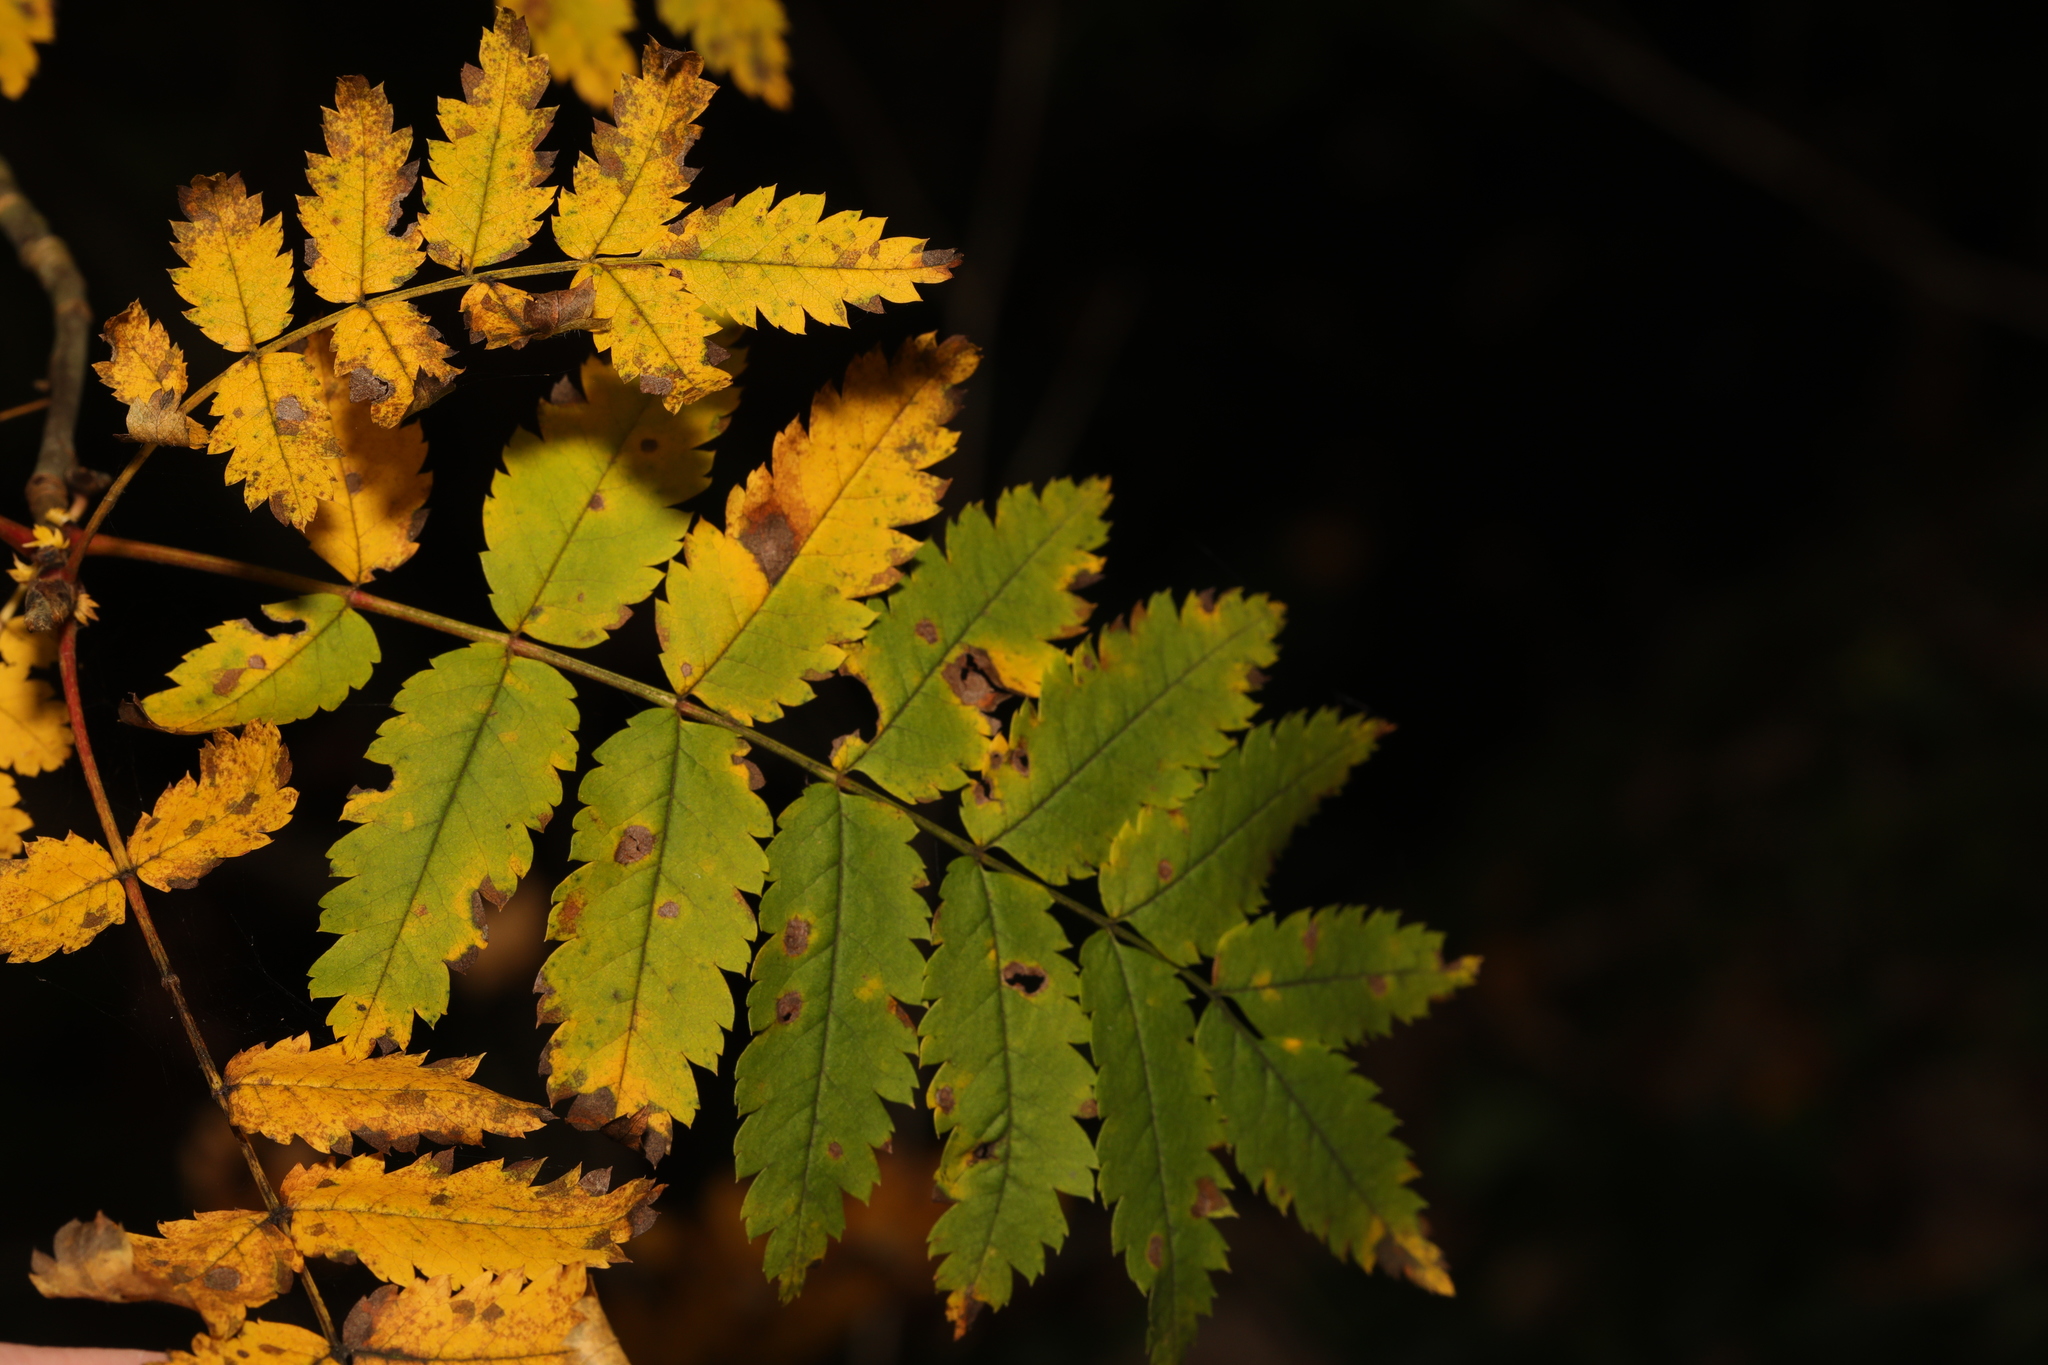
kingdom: Plantae
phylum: Tracheophyta
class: Magnoliopsida
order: Rosales
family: Rosaceae
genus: Sorbus
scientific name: Sorbus aucuparia
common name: Rowan
